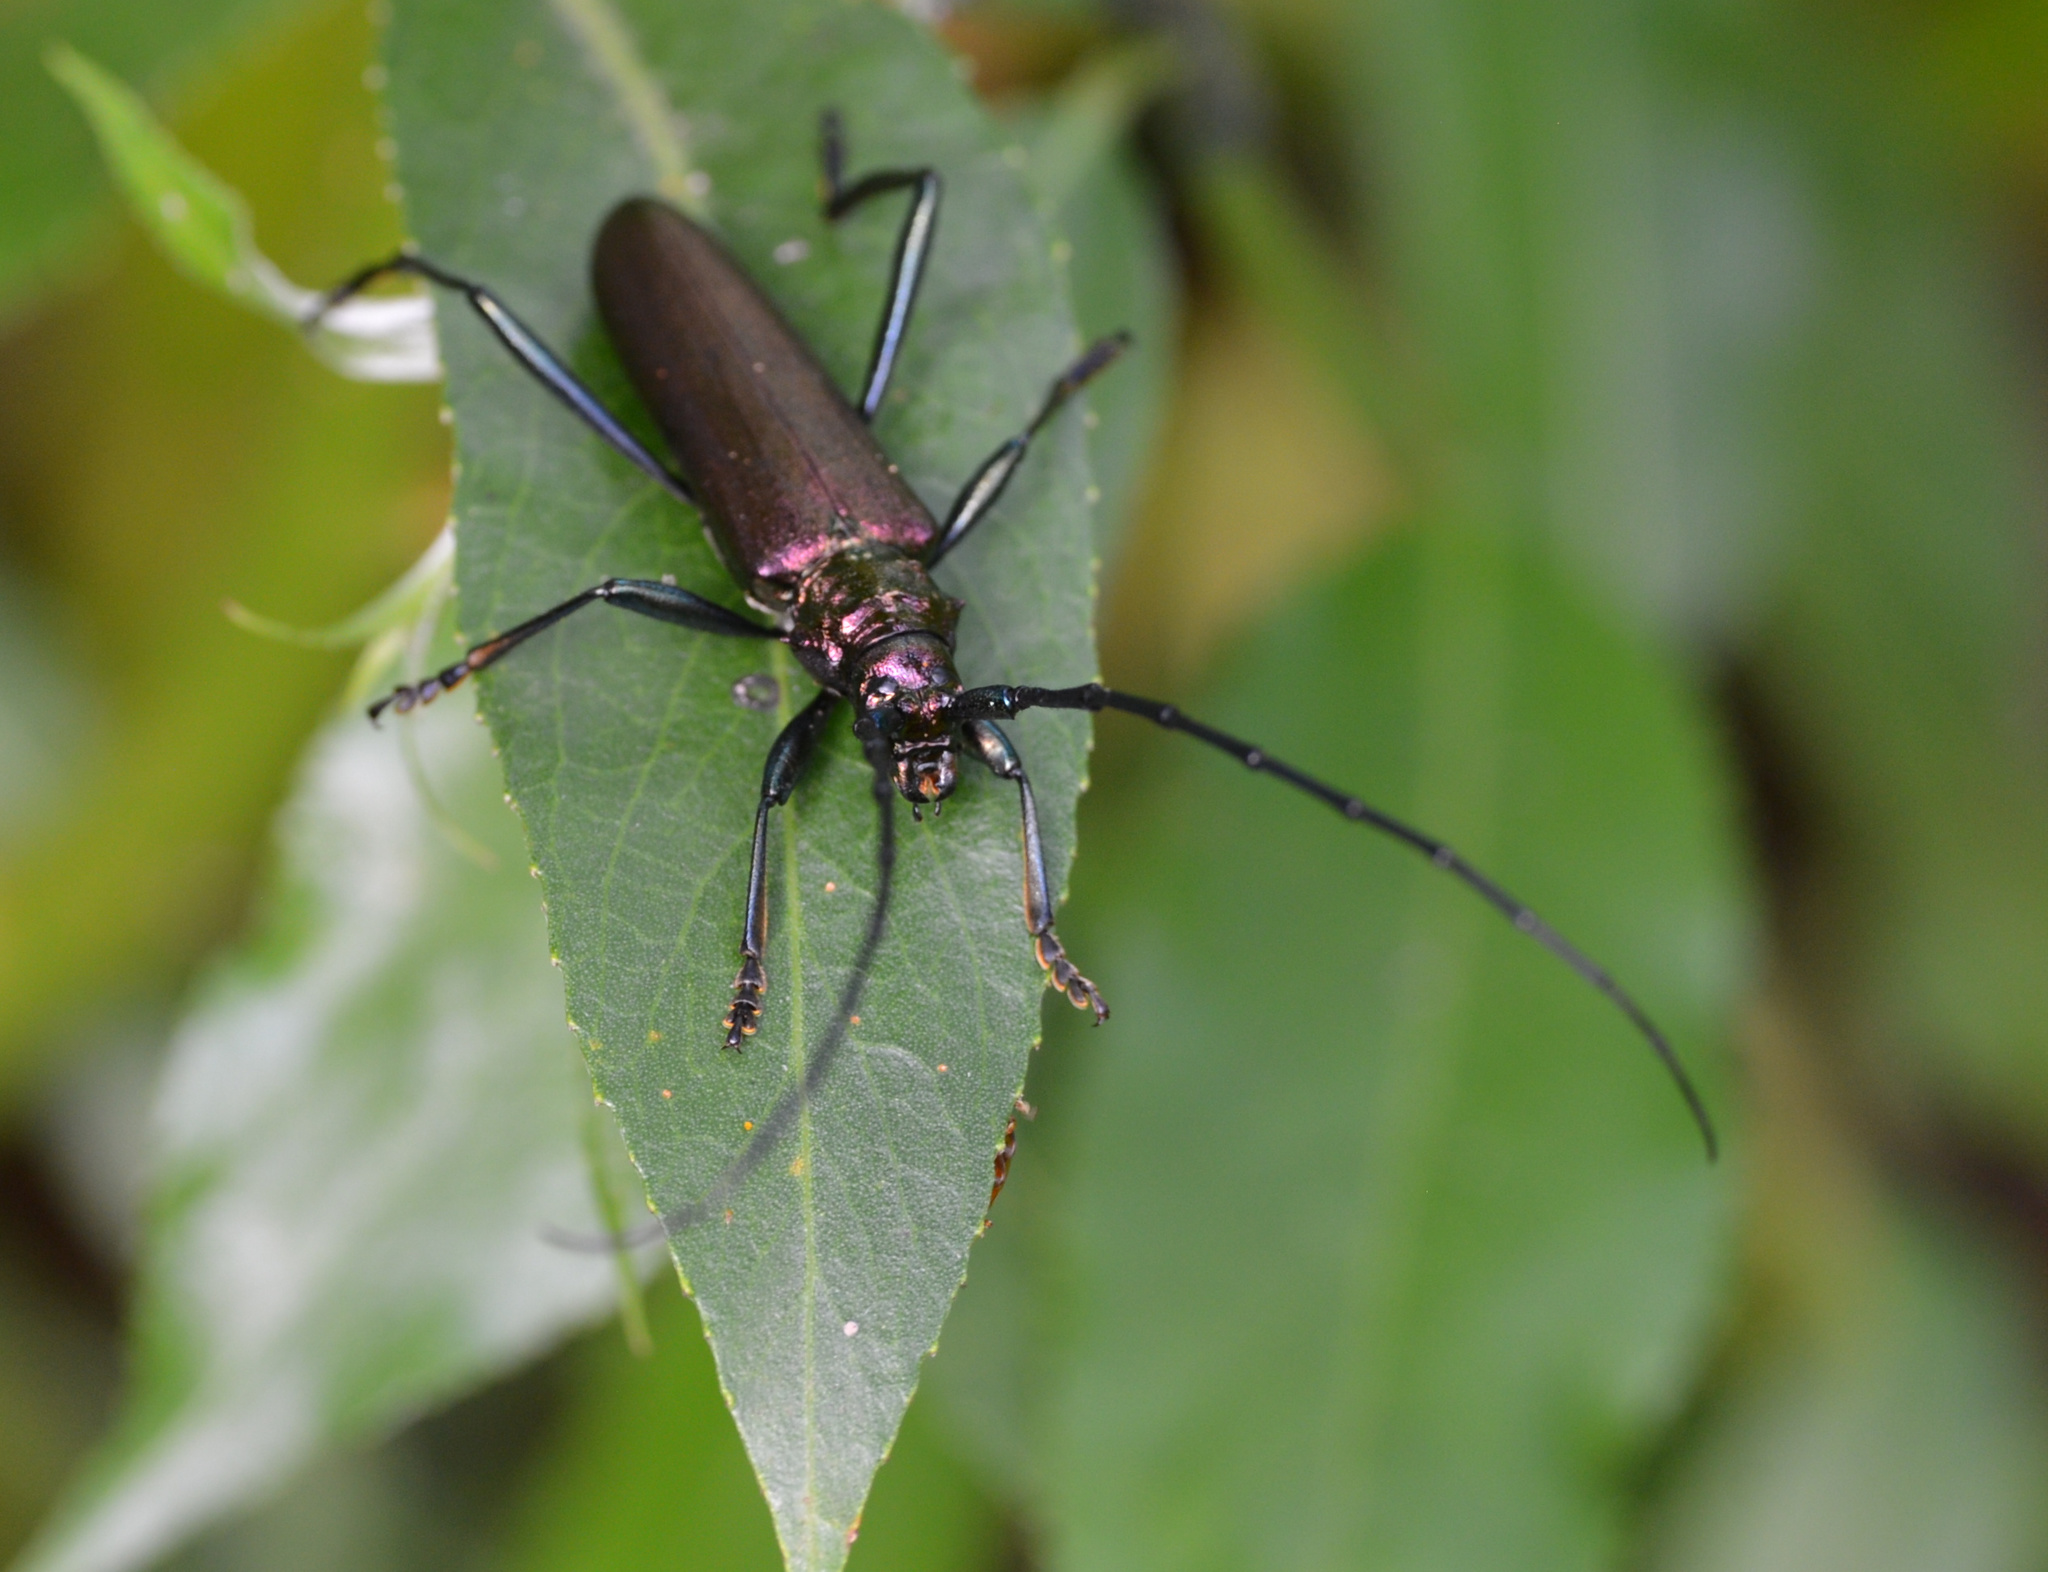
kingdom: Animalia
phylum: Arthropoda
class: Insecta
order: Coleoptera
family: Cerambycidae
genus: Aromia
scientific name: Aromia moschata
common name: Musk beetle
